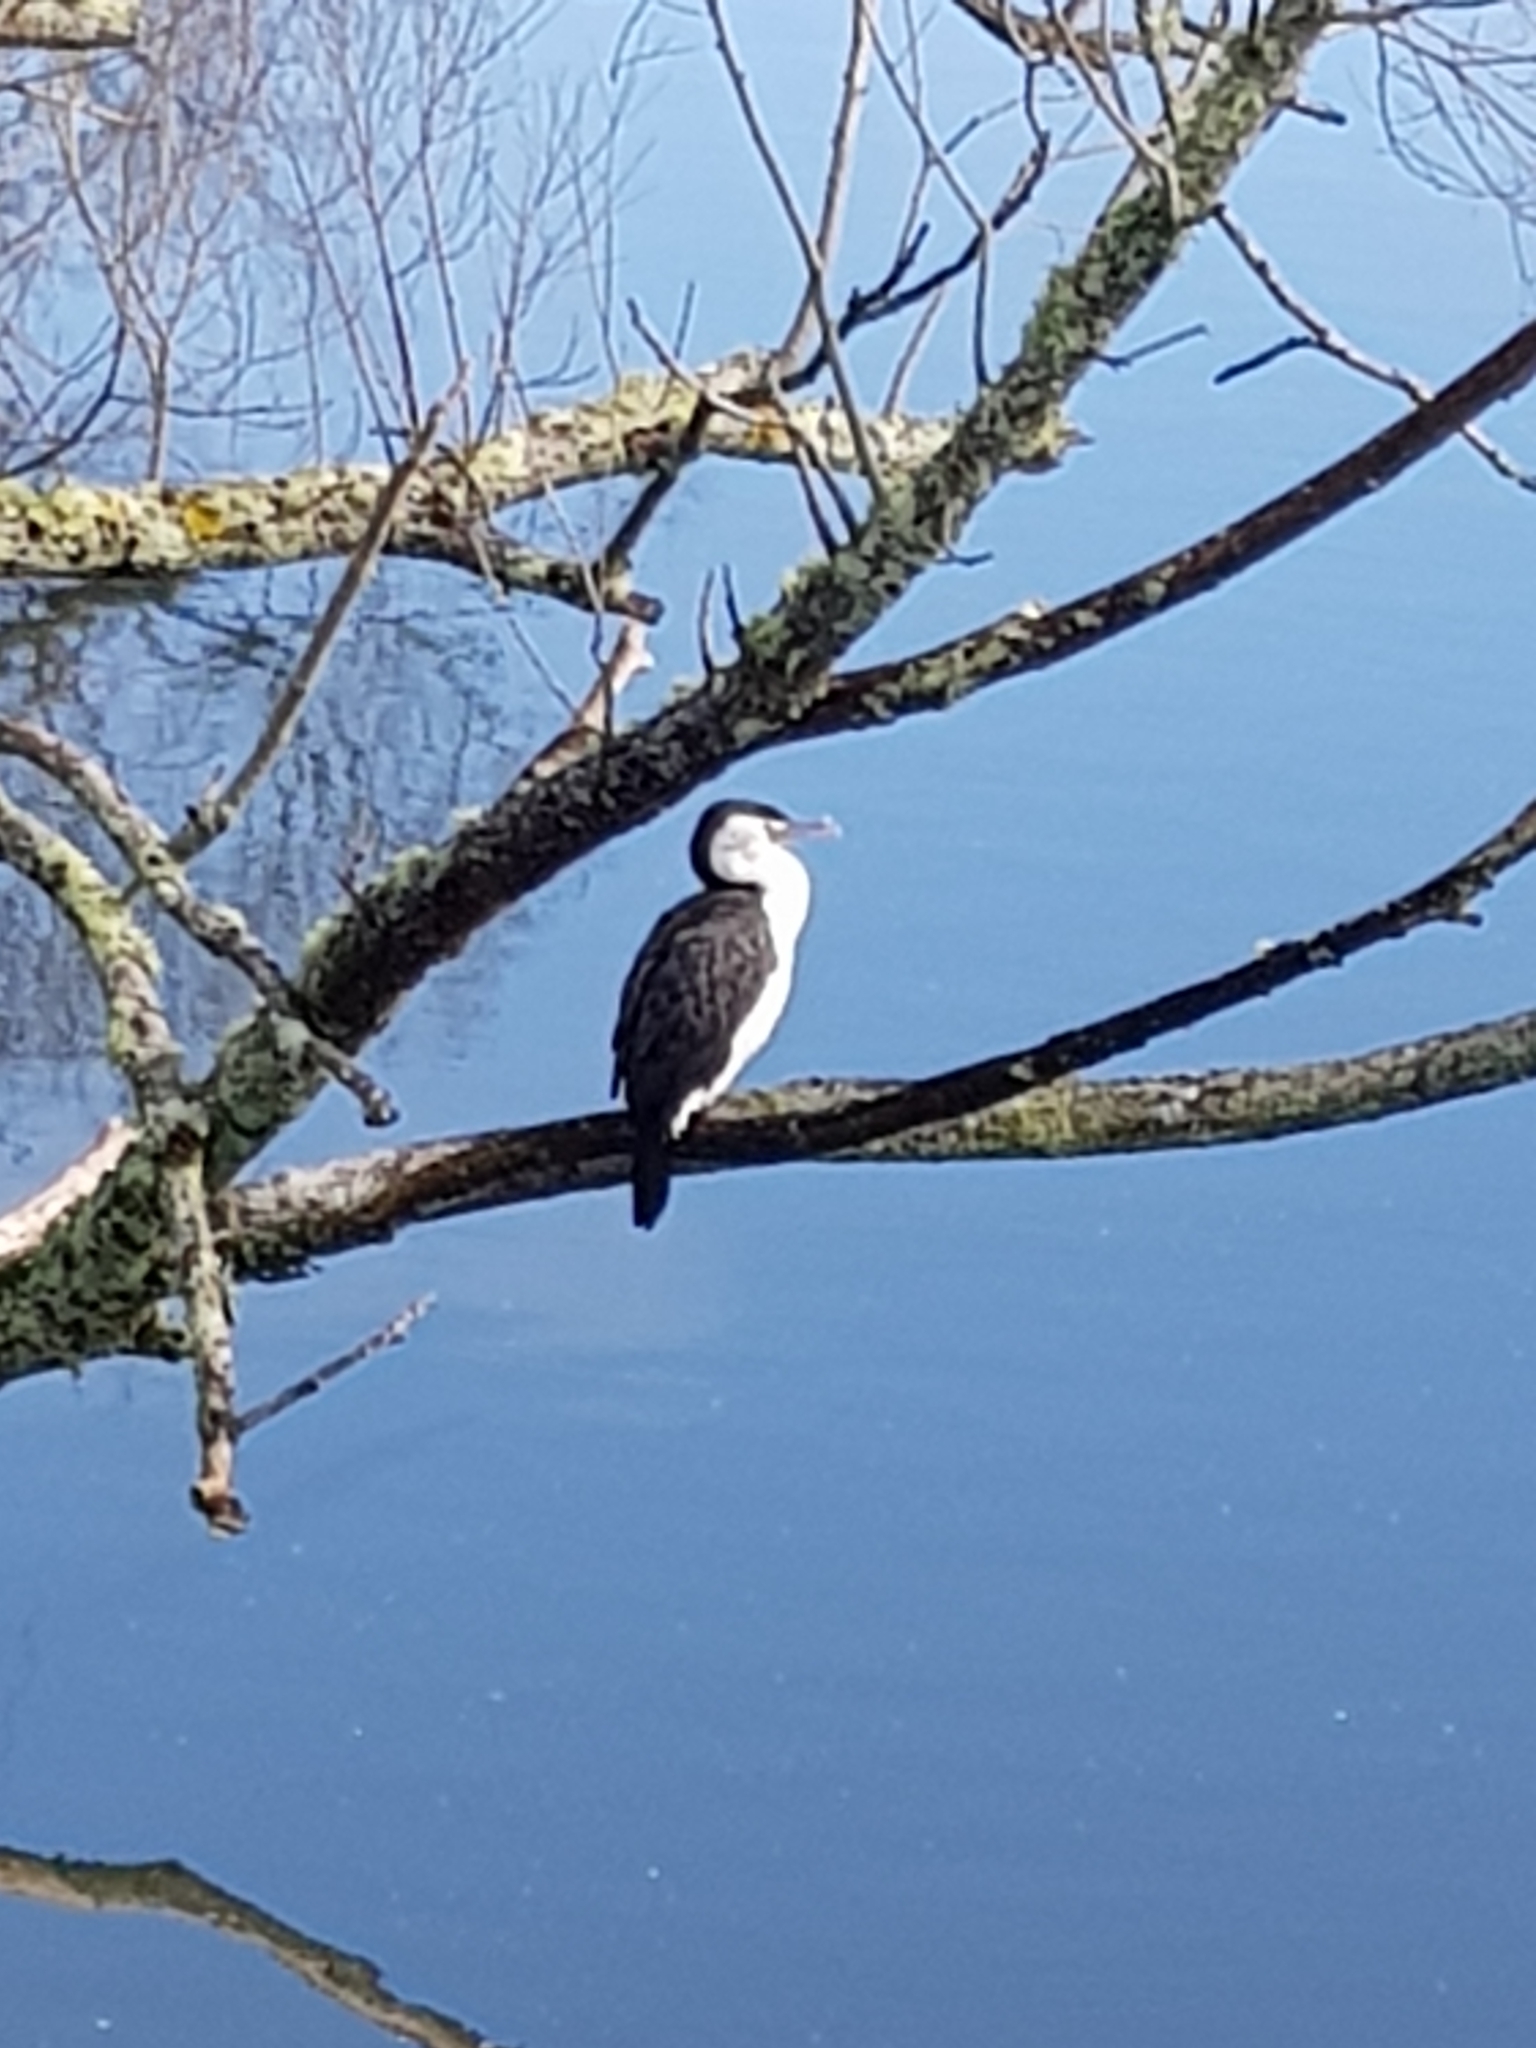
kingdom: Animalia
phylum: Chordata
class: Aves
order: Suliformes
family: Phalacrocoracidae
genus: Phalacrocorax
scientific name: Phalacrocorax varius
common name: Pied cormorant
